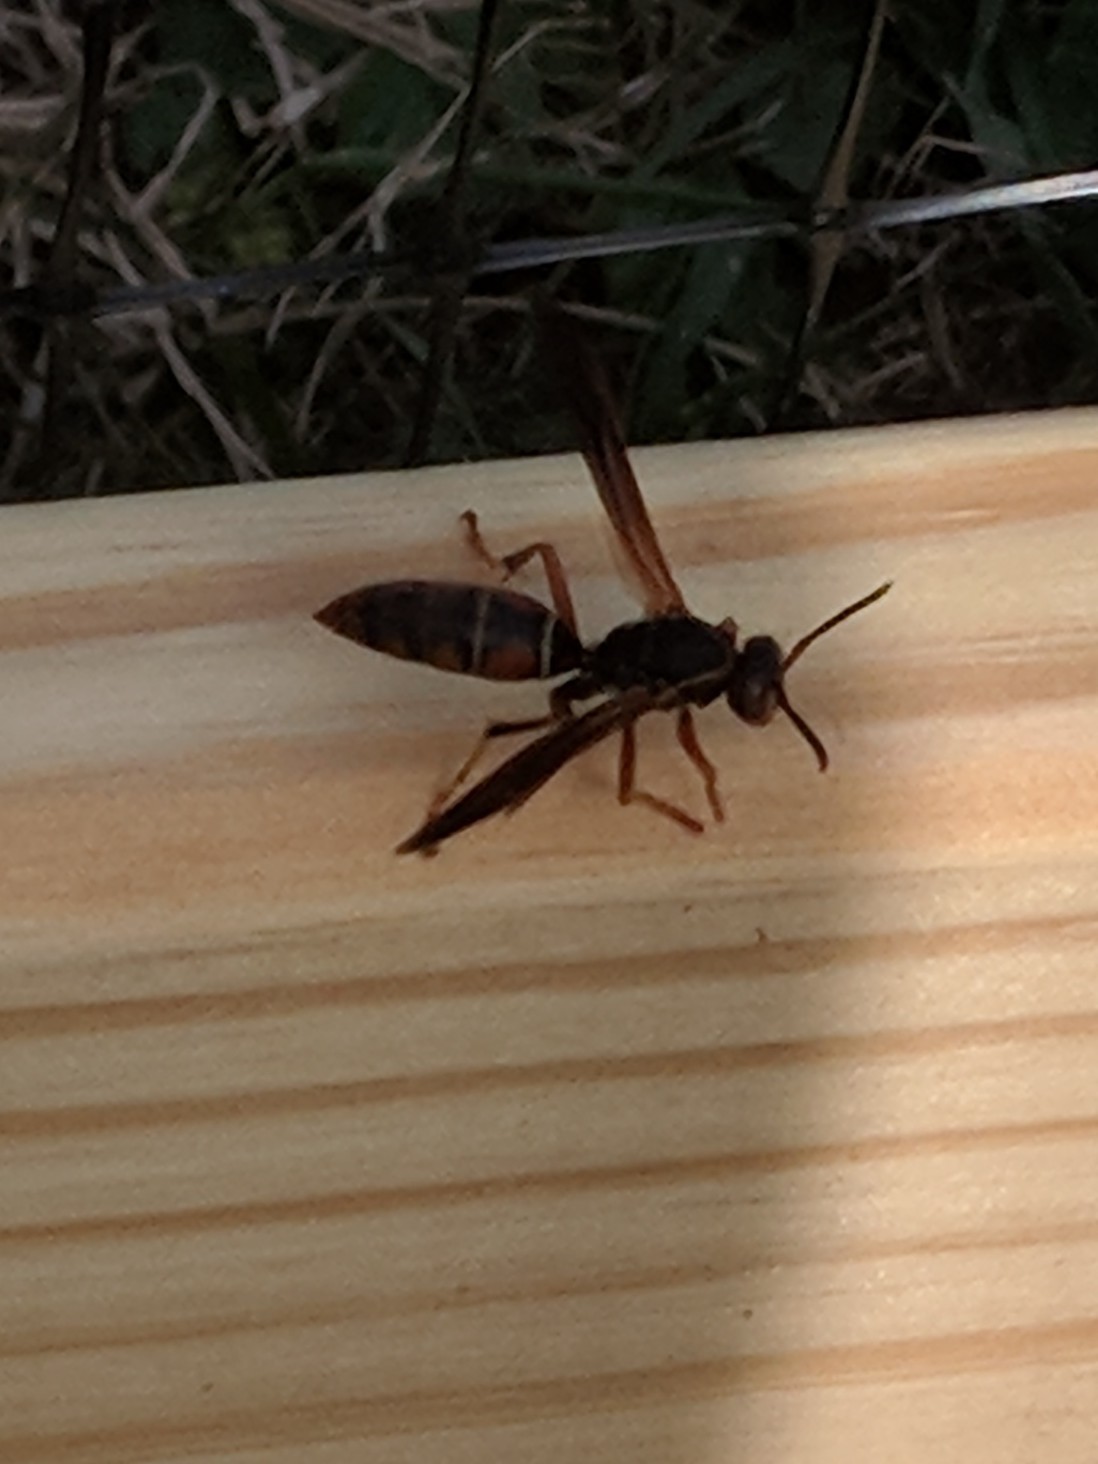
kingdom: Animalia
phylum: Arthropoda
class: Insecta
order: Hymenoptera
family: Eumenidae
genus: Polistes
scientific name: Polistes fuscatus
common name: Dark paper wasp
